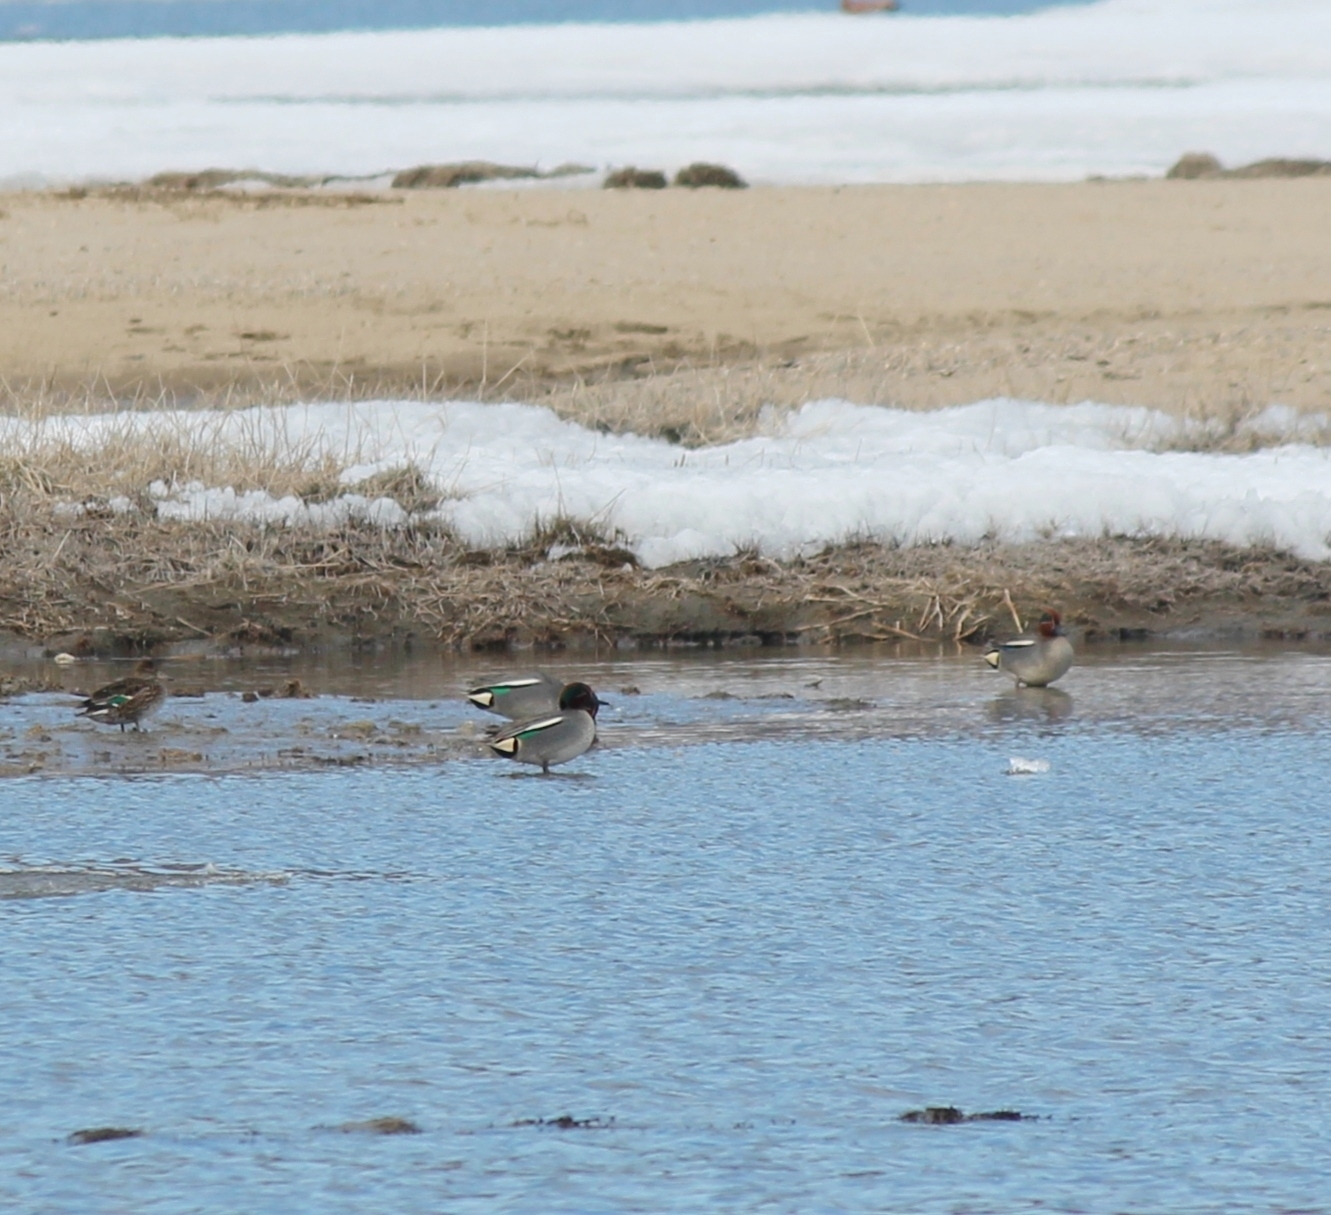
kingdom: Animalia
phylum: Chordata
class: Aves
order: Anseriformes
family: Anatidae
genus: Anas
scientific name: Anas crecca
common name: Eurasian teal
